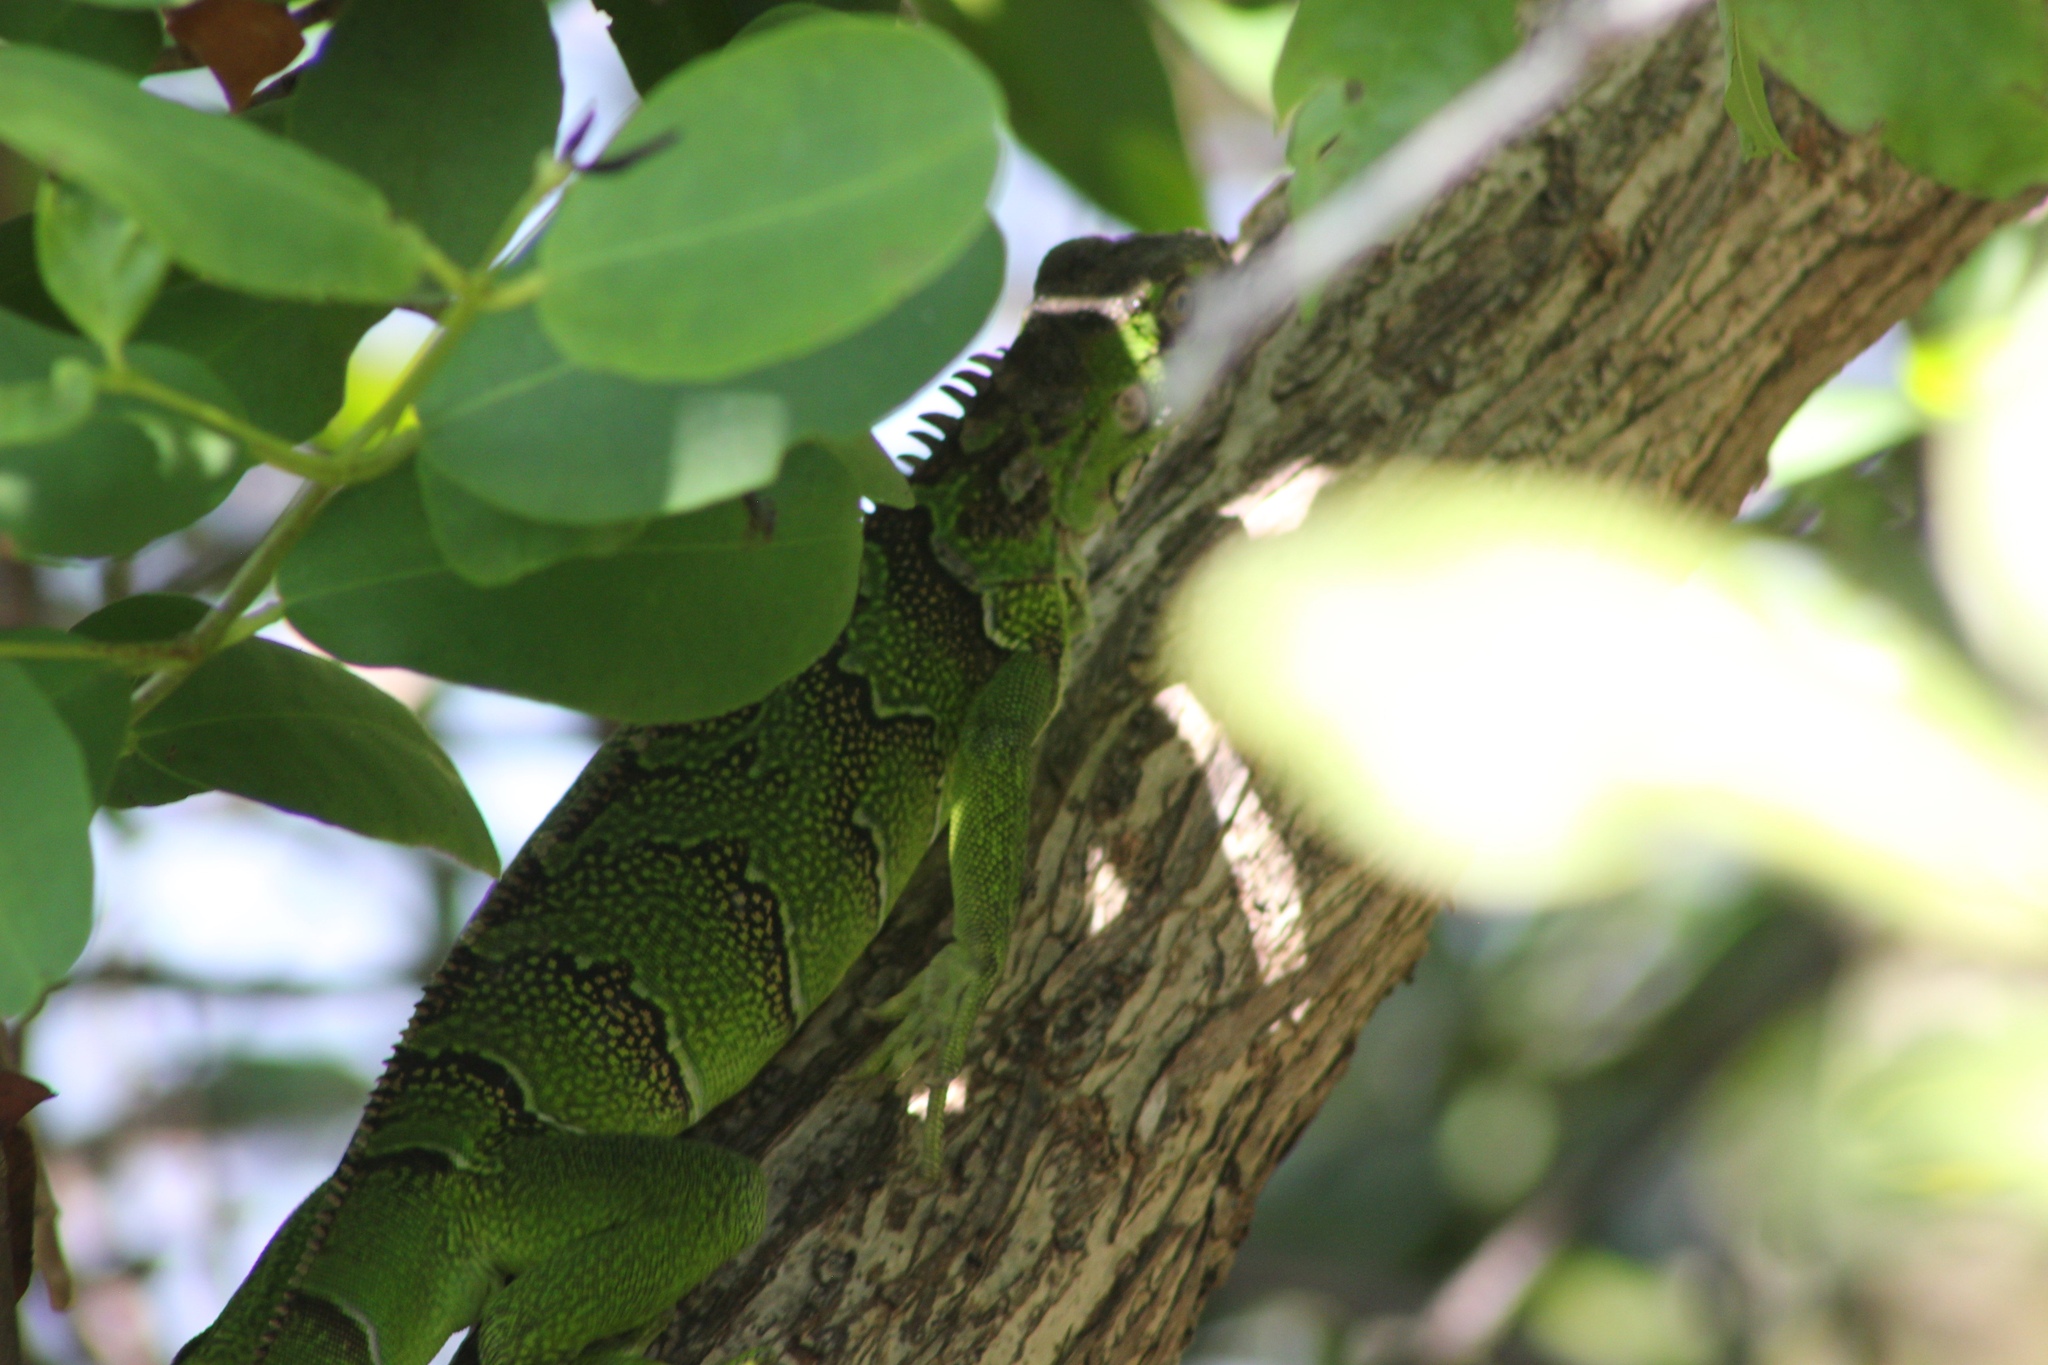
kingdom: Animalia
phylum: Chordata
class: Squamata
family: Iguanidae
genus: Iguana
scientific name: Iguana iguana
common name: Green iguana
